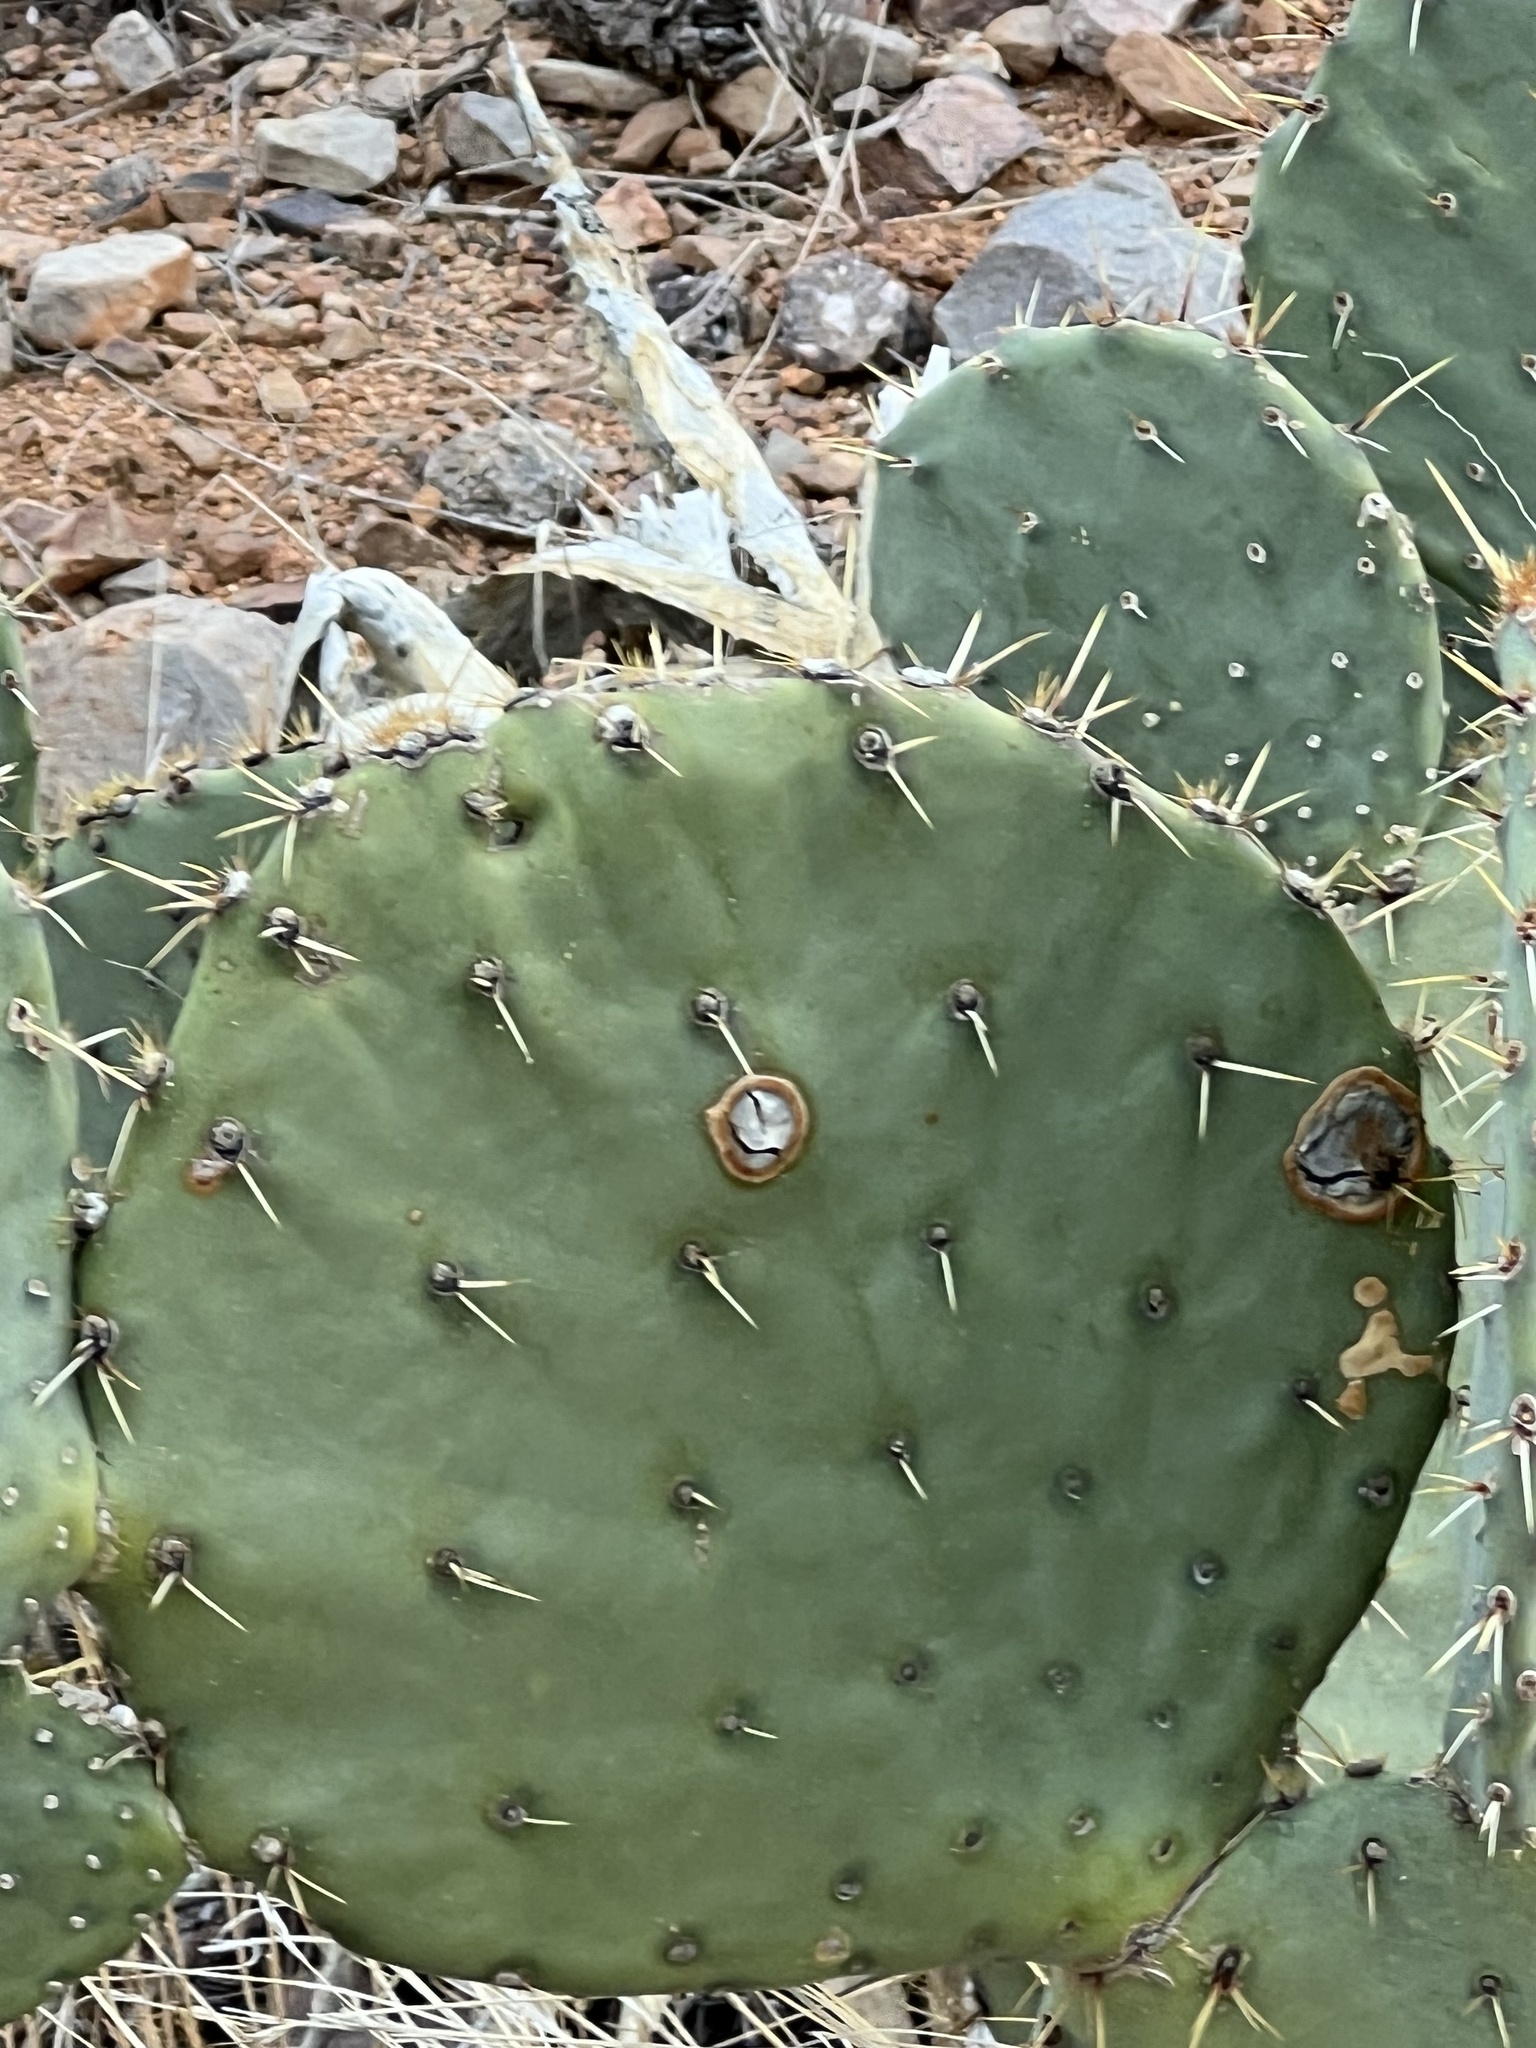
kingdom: Plantae
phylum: Tracheophyta
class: Magnoliopsida
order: Caryophyllales
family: Cactaceae
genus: Opuntia
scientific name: Opuntia engelmannii
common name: Cactus-apple
